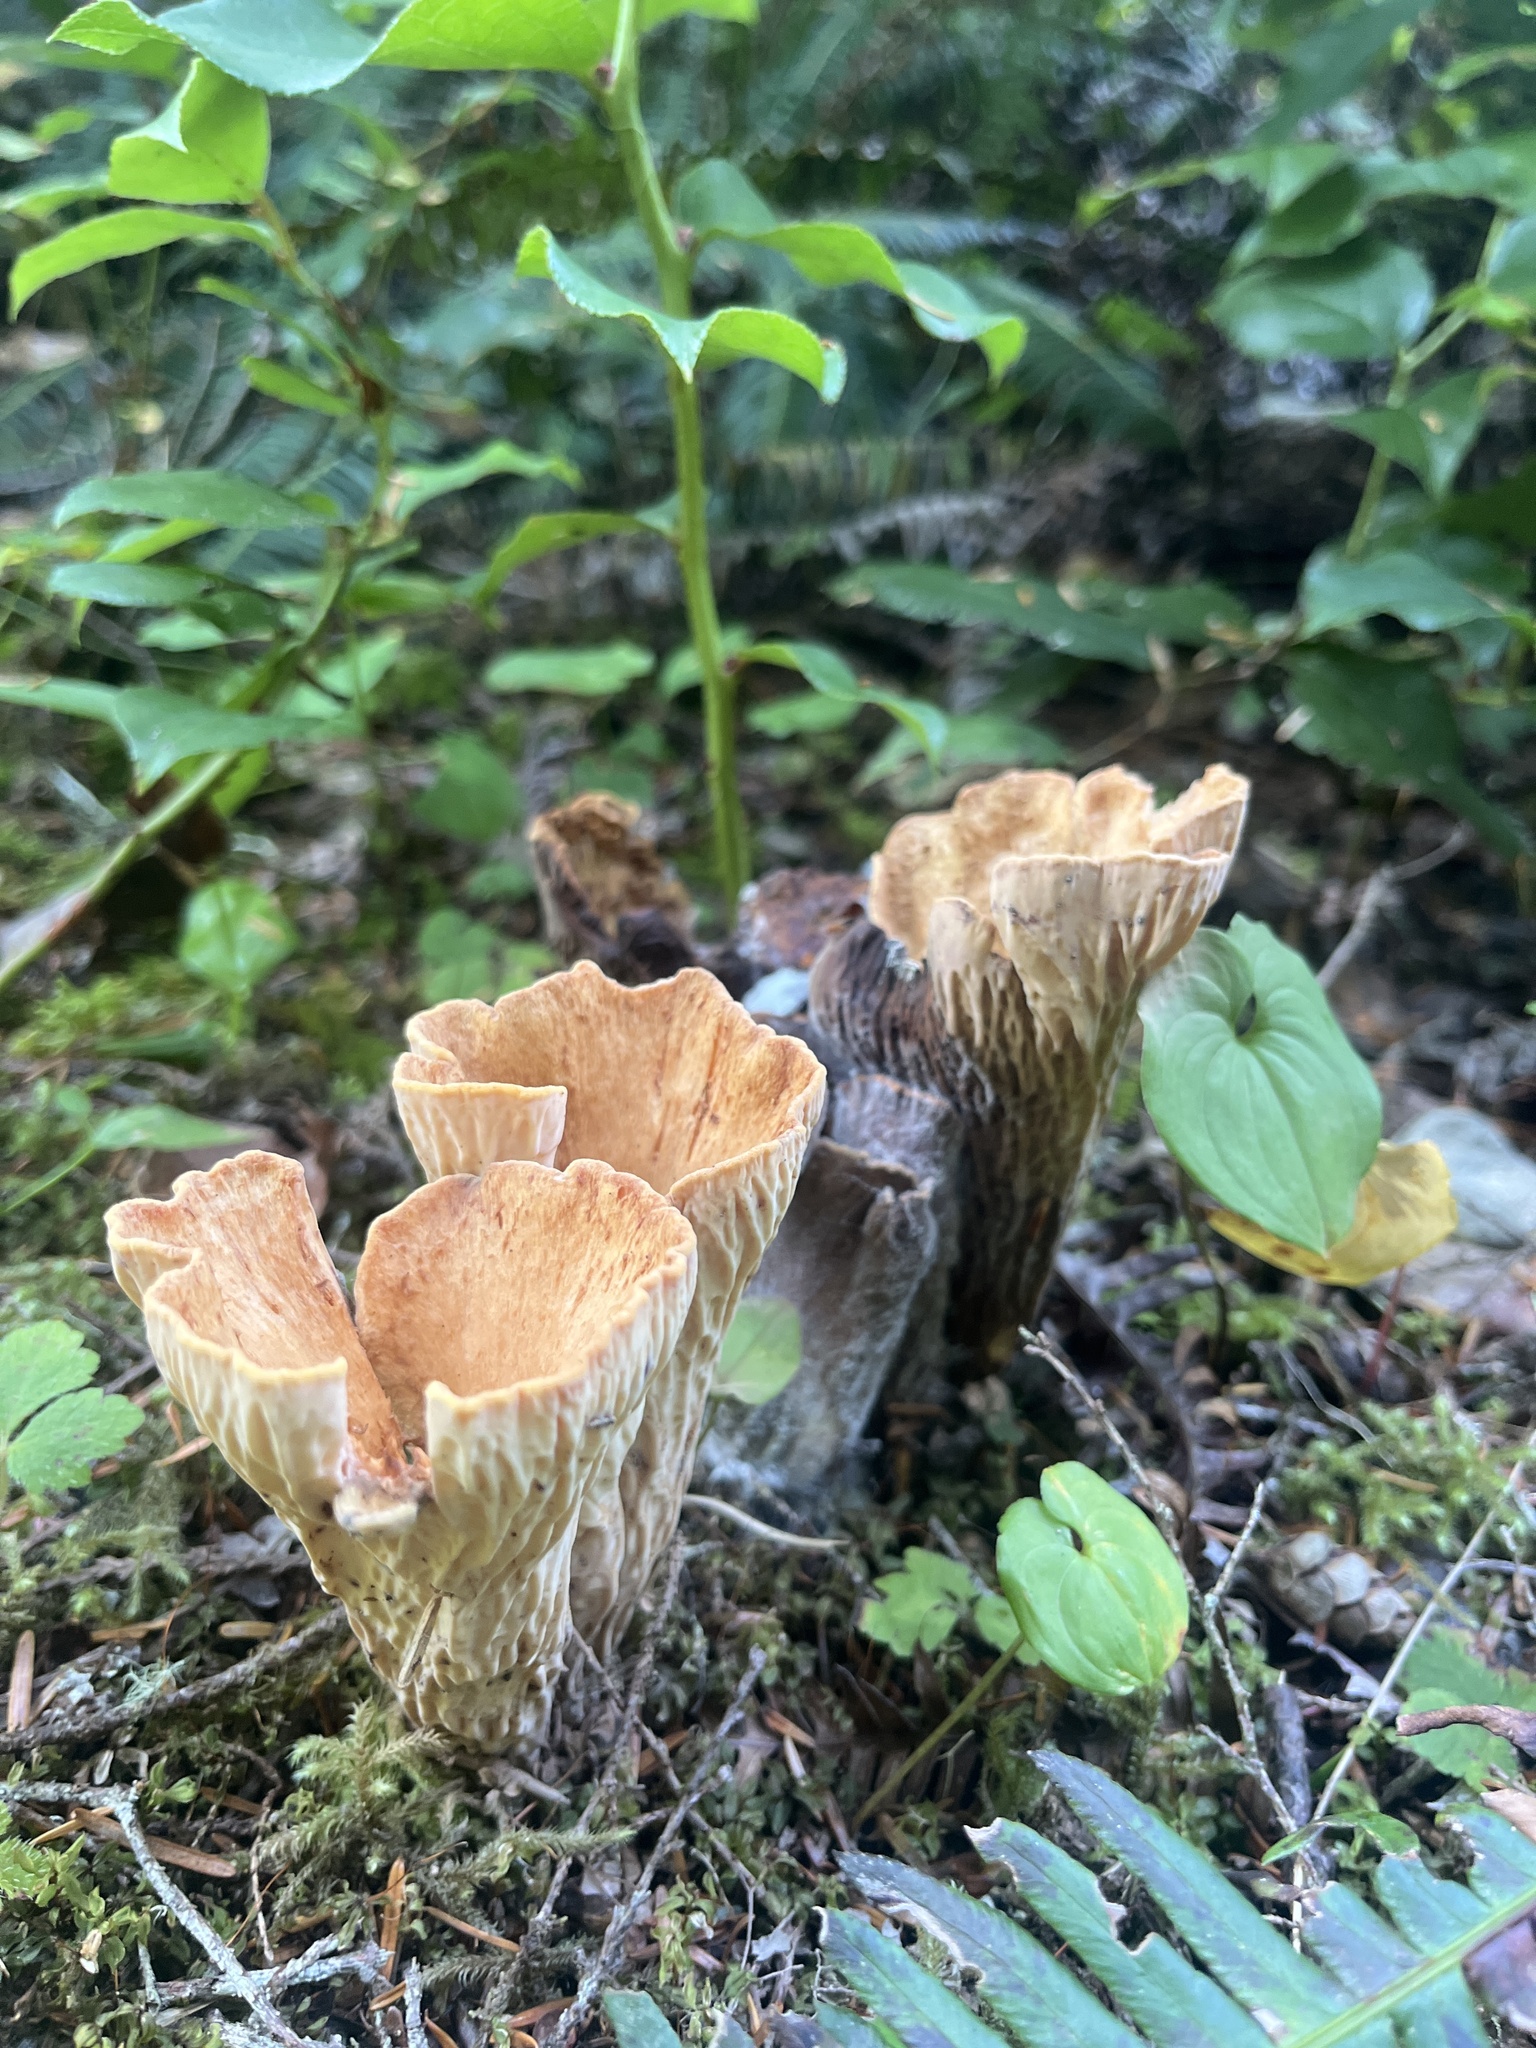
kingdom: Fungi
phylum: Basidiomycota
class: Agaricomycetes
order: Gomphales
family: Gomphaceae
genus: Turbinellus
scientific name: Turbinellus floccosus
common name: Scaly chanterelle
